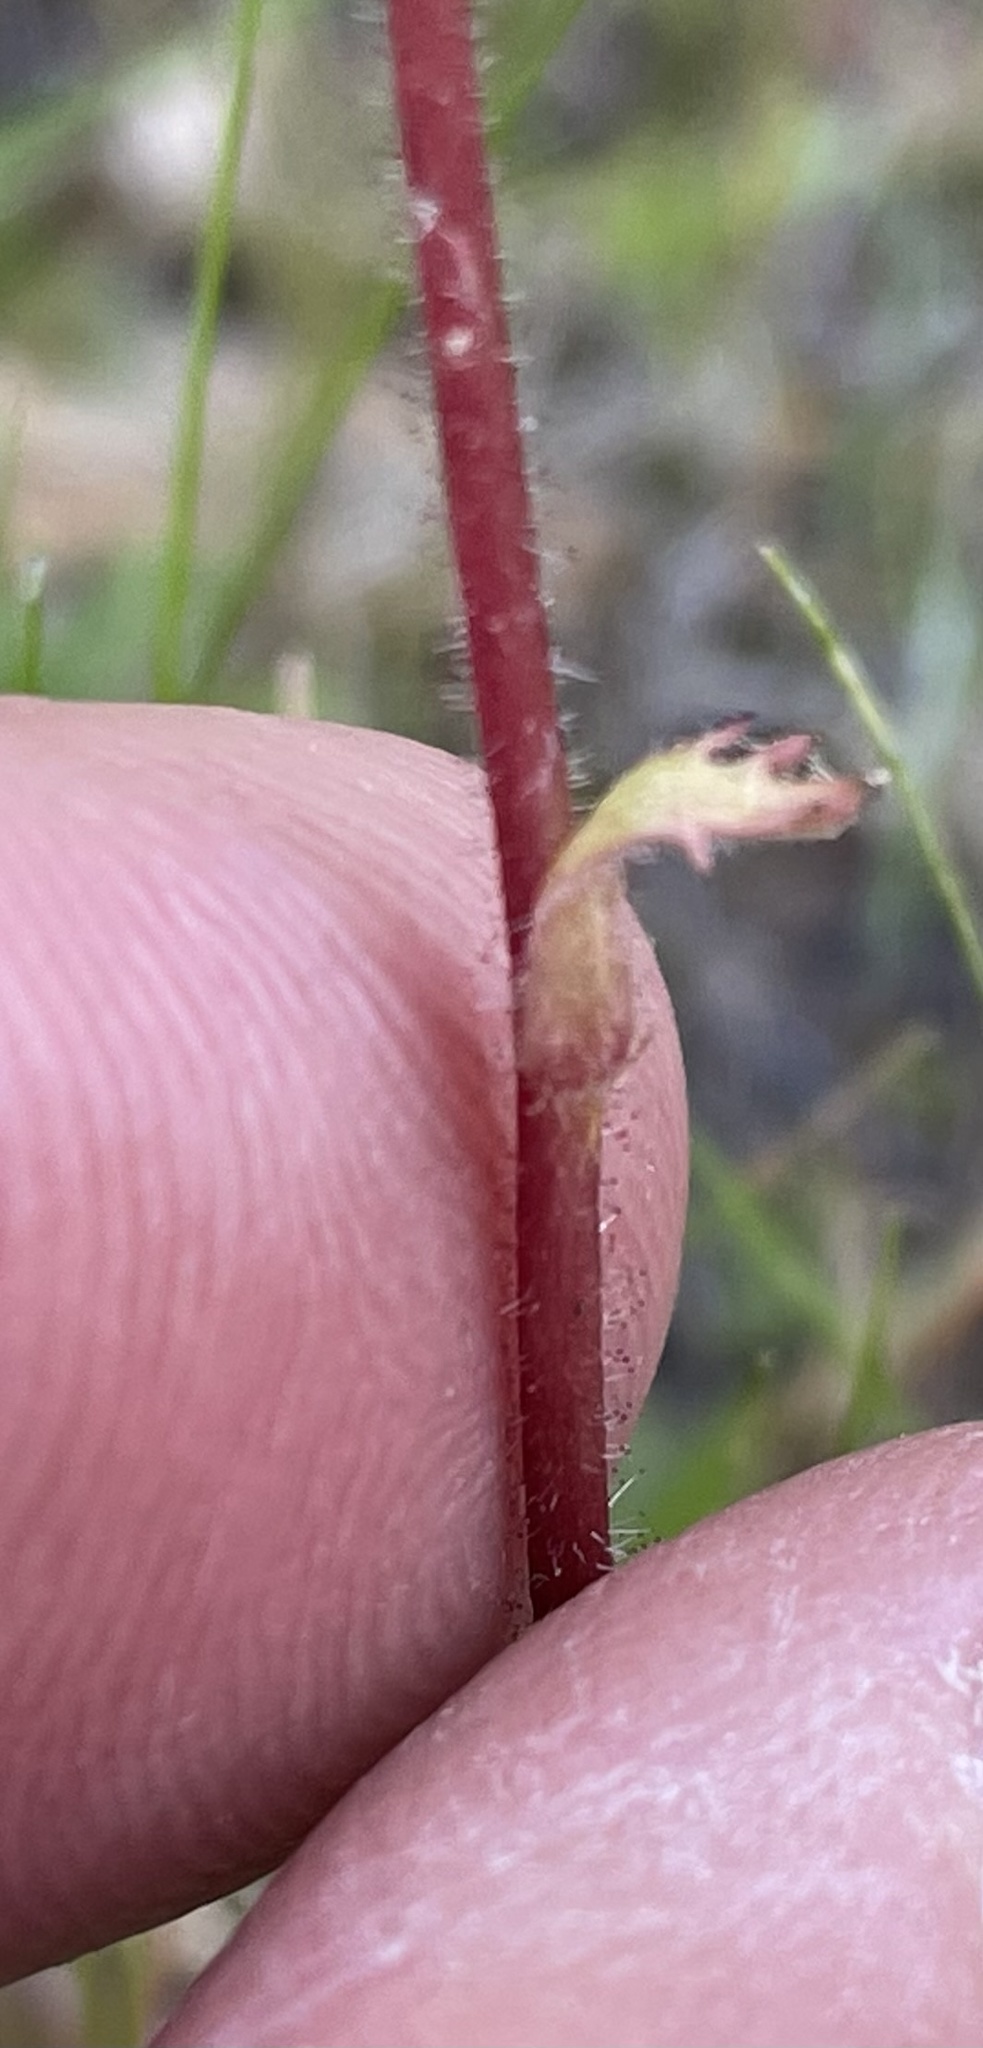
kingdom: Plantae
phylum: Tracheophyta
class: Magnoliopsida
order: Saxifragales
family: Saxifragaceae
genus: Micranthes
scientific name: Micranthes californica
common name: California saxifrage
